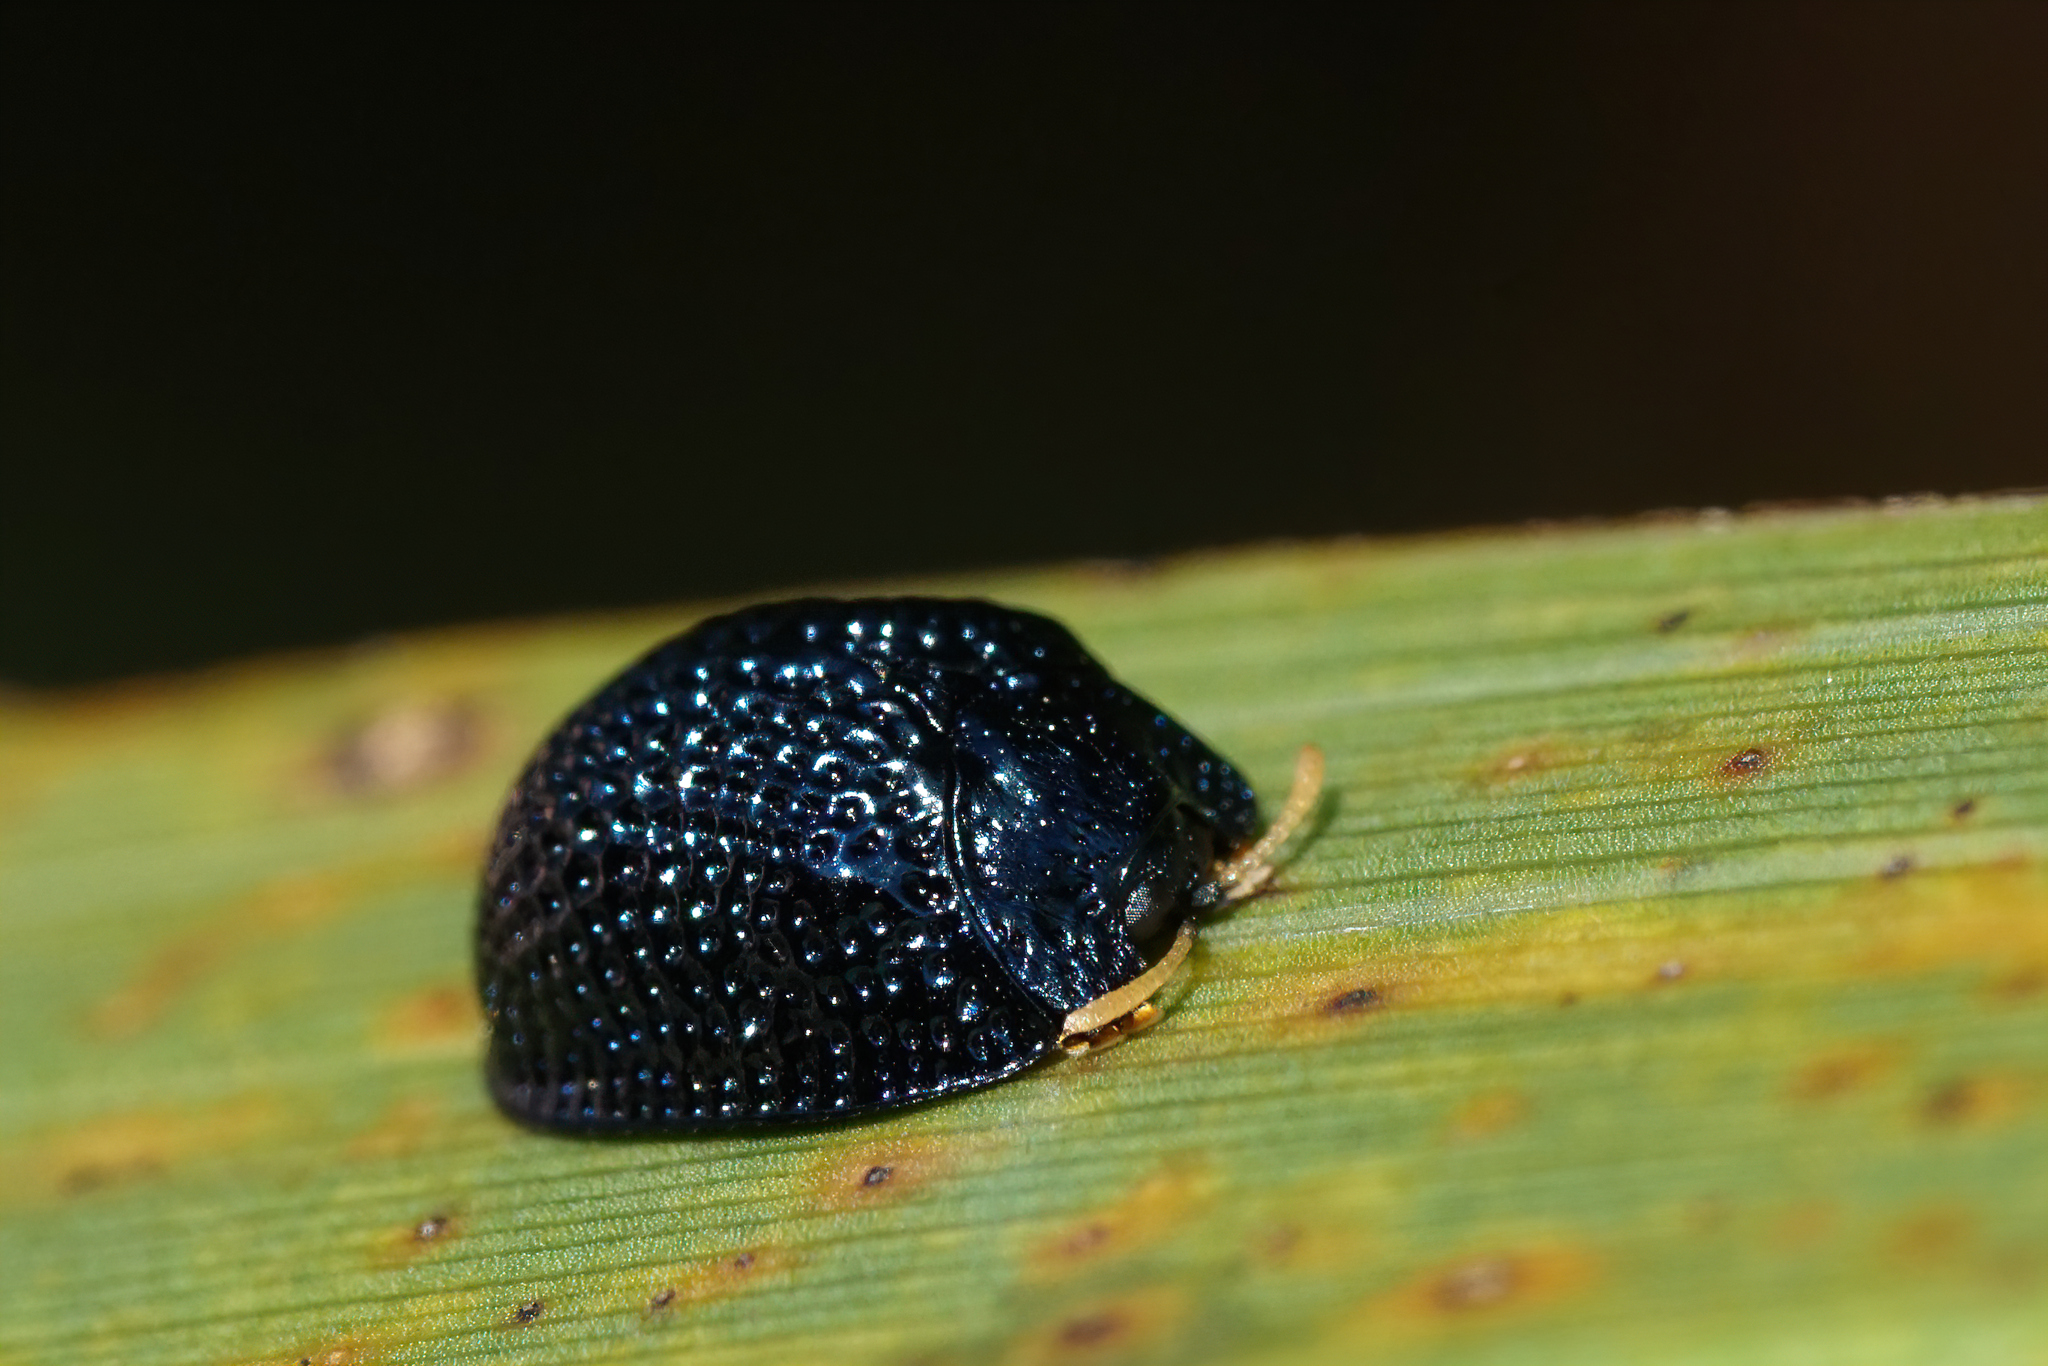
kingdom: Animalia
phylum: Arthropoda
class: Insecta
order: Coleoptera
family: Chrysomelidae
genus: Hemisphaerota
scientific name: Hemisphaerota cyanea
